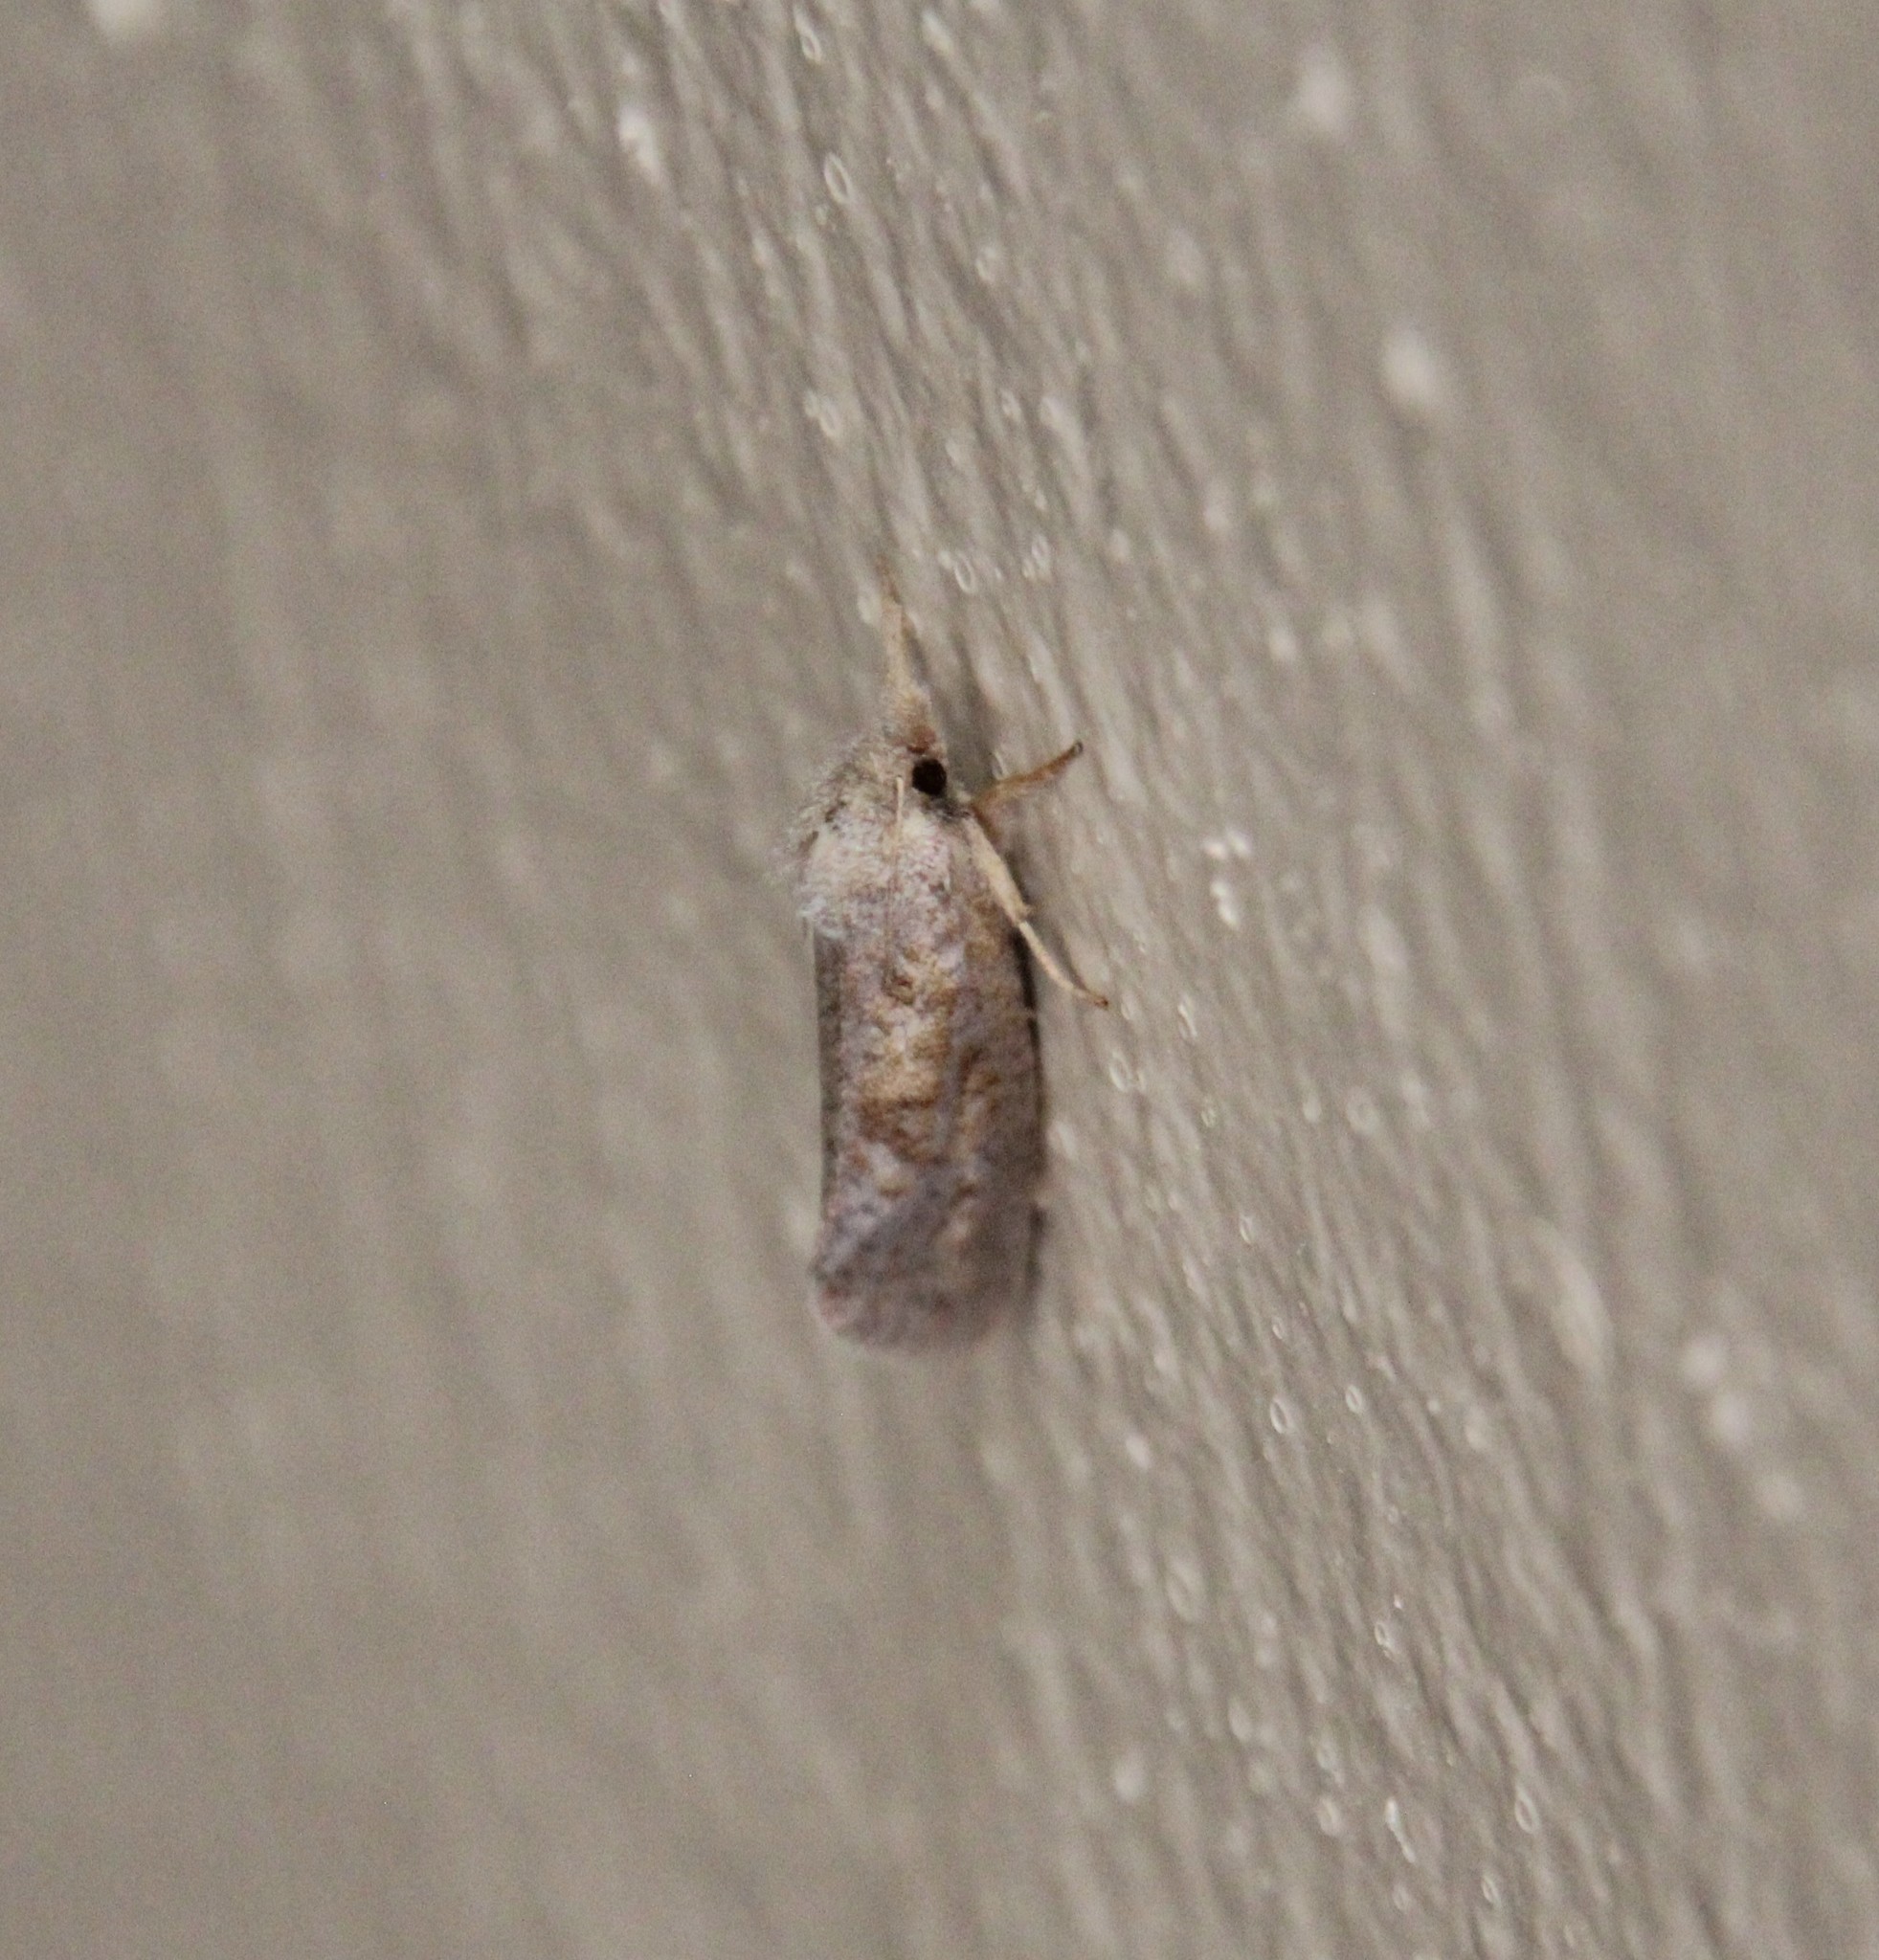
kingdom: Animalia
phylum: Arthropoda
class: Insecta
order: Lepidoptera
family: Tineidae
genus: Acrolophus
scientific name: Acrolophus plumifrontella
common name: Eastern grass tubeworm moth
